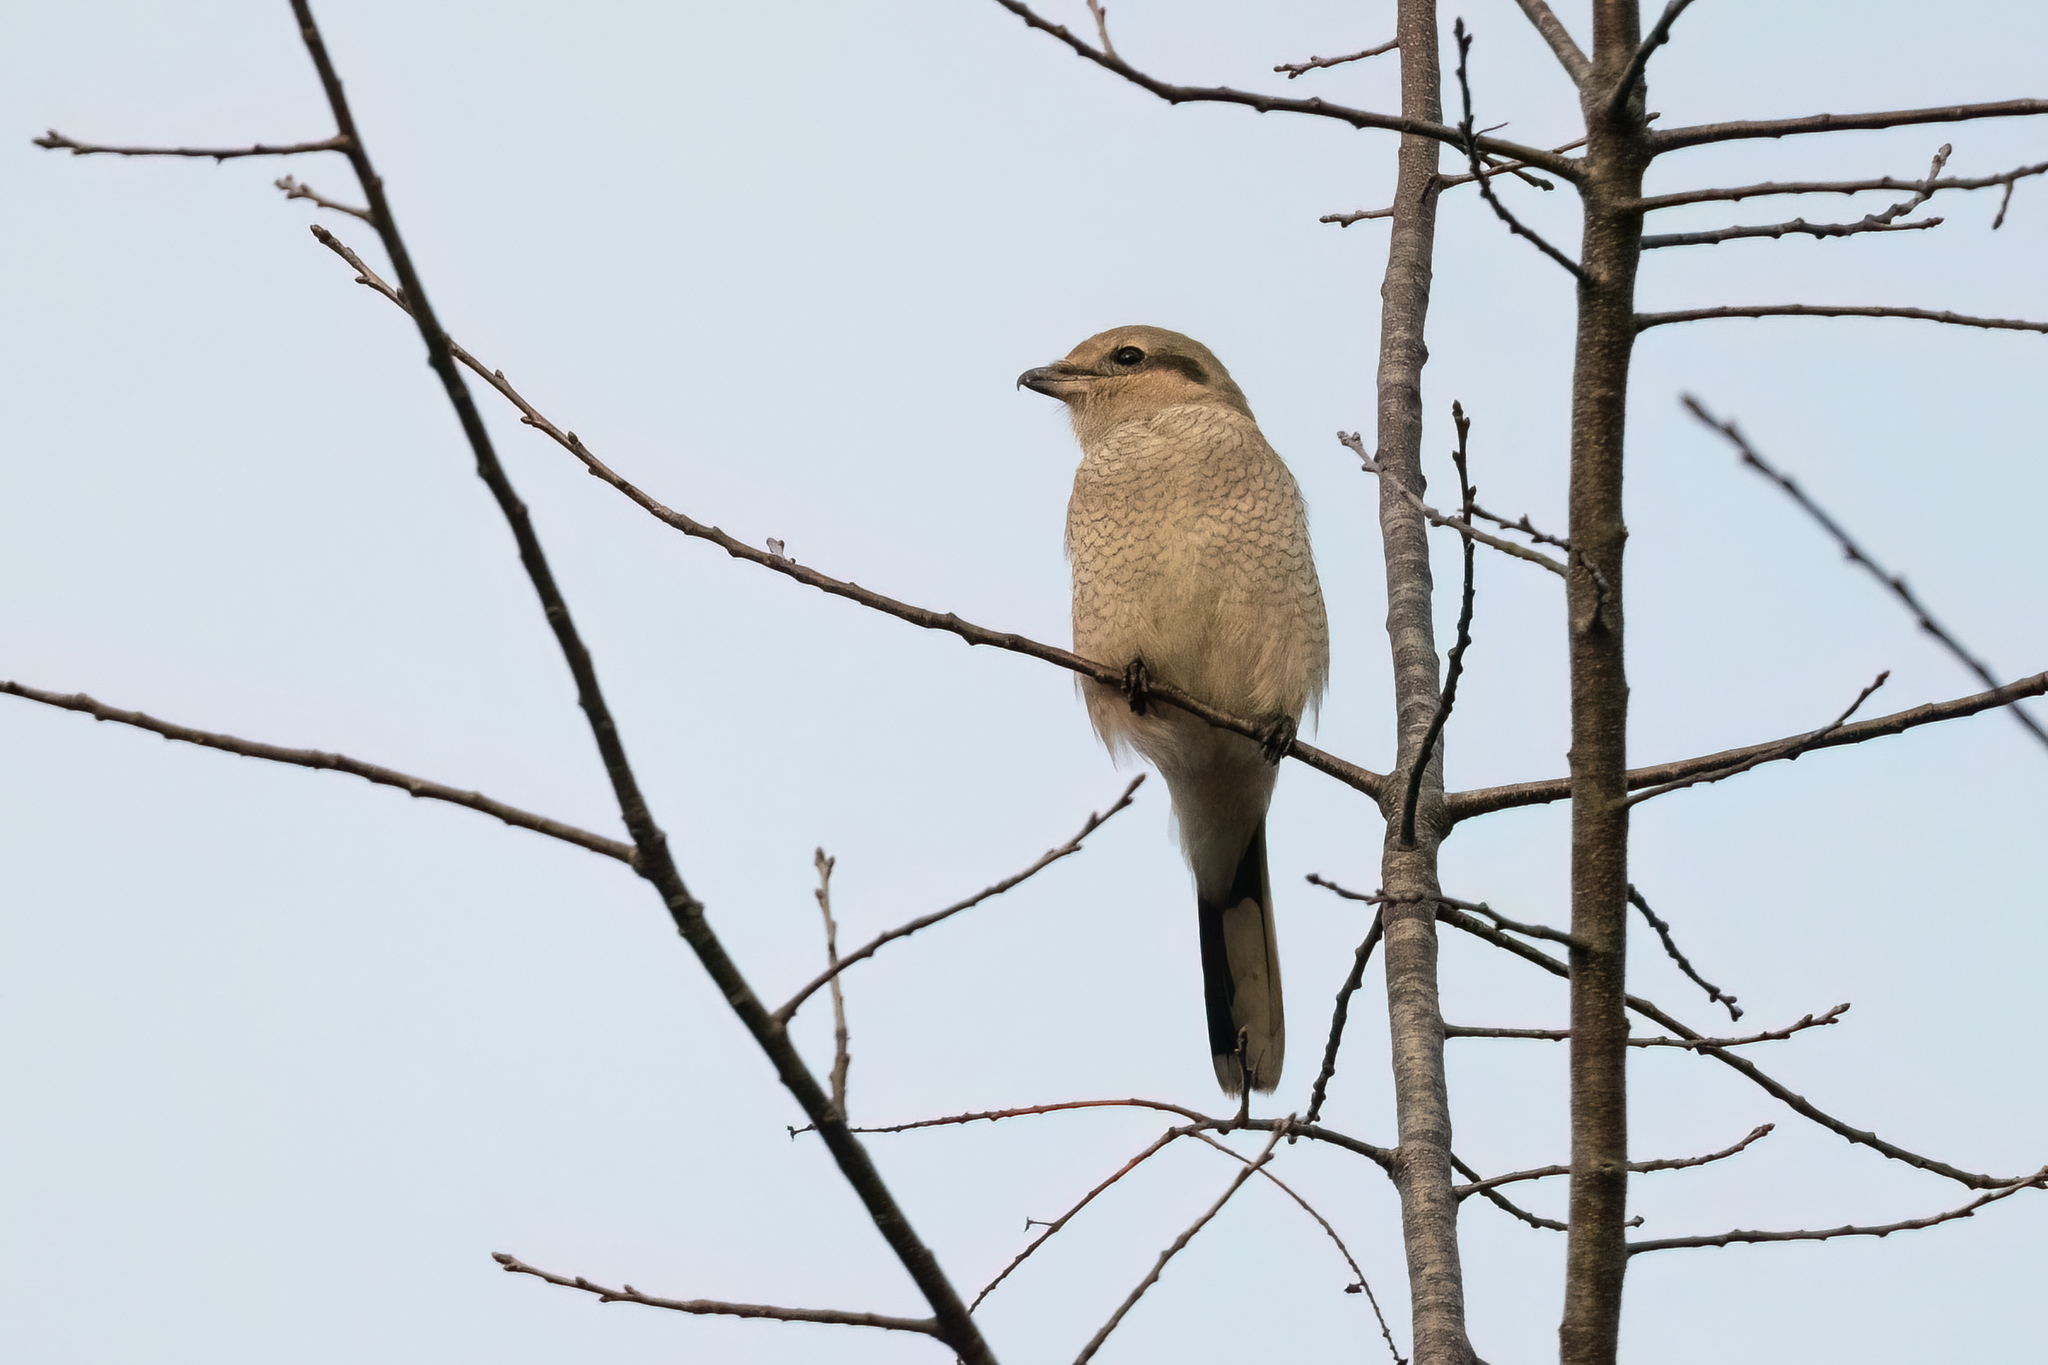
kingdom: Animalia
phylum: Chordata
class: Aves
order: Passeriformes
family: Laniidae
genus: Lanius
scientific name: Lanius borealis
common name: Northern shrike
